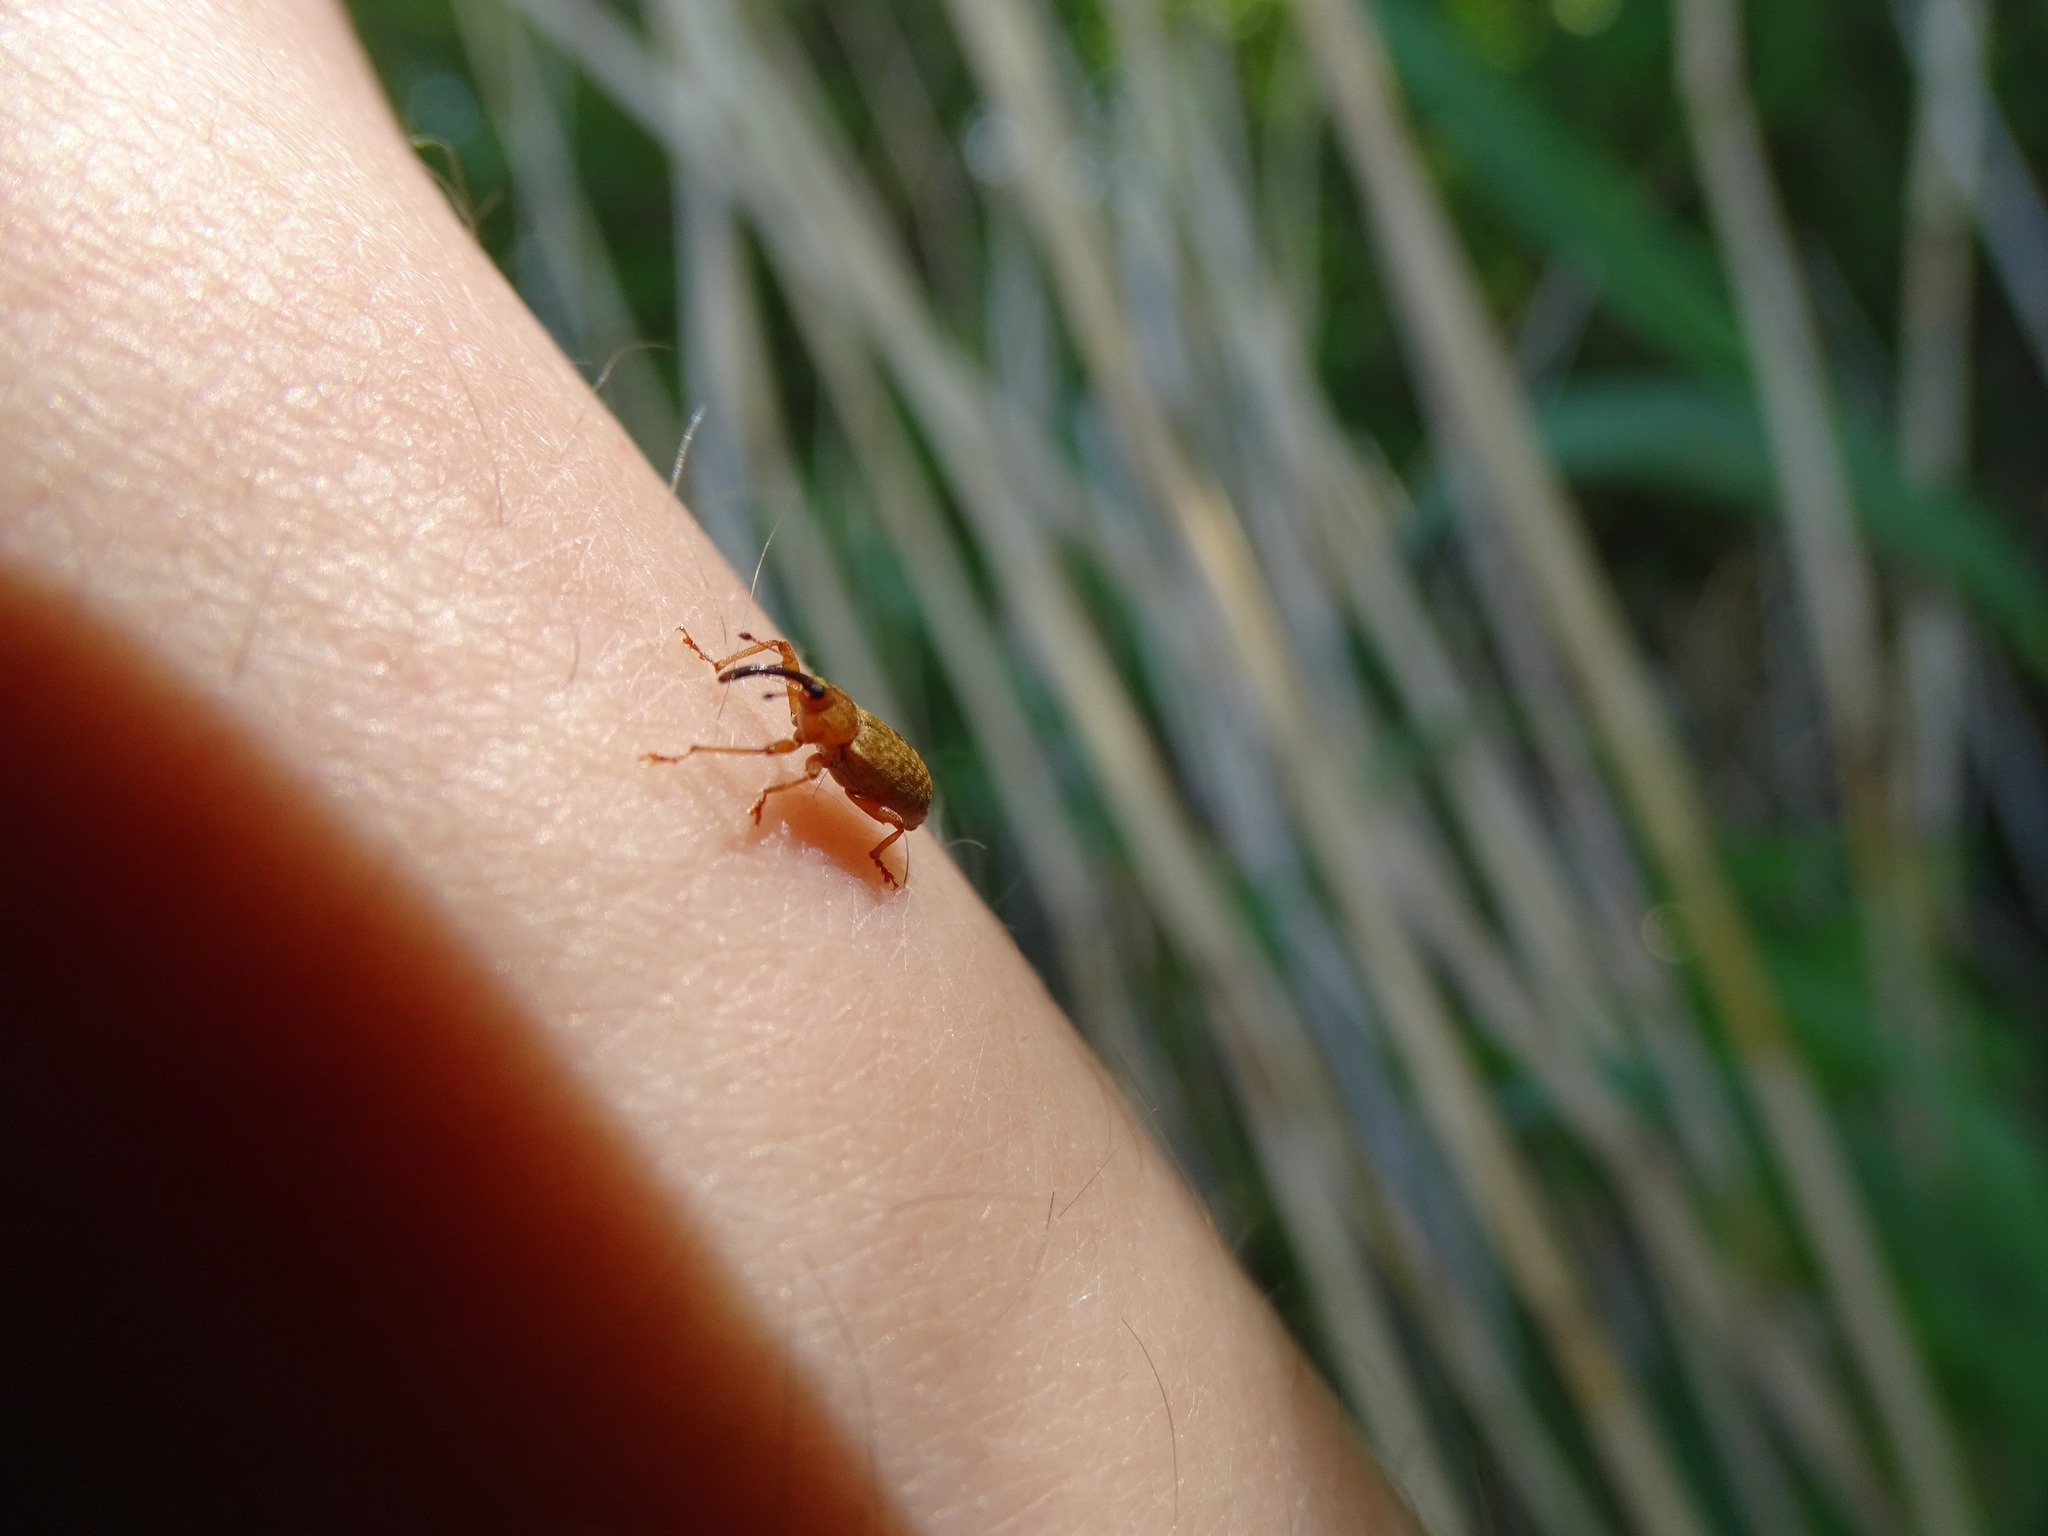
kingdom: Animalia
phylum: Arthropoda
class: Insecta
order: Coleoptera
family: Curculionidae
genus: Dorytomus
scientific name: Dorytomus longimanus
